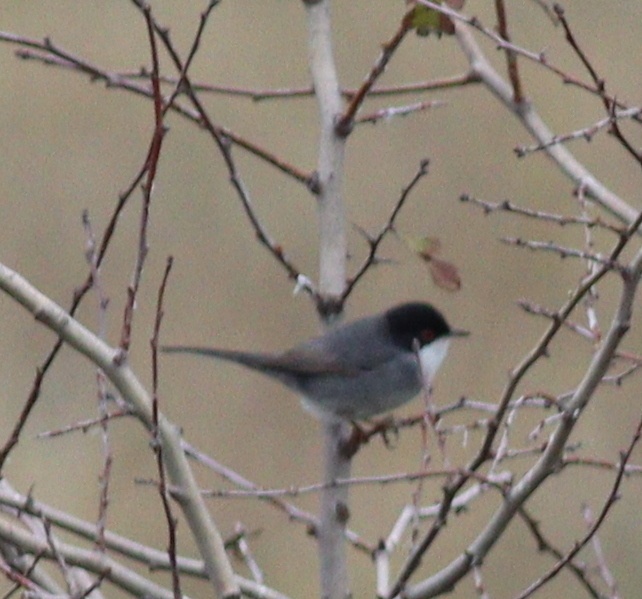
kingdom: Animalia
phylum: Chordata
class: Aves
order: Passeriformes
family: Sylviidae
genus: Curruca
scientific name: Curruca melanocephala
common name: Sardinian warbler
